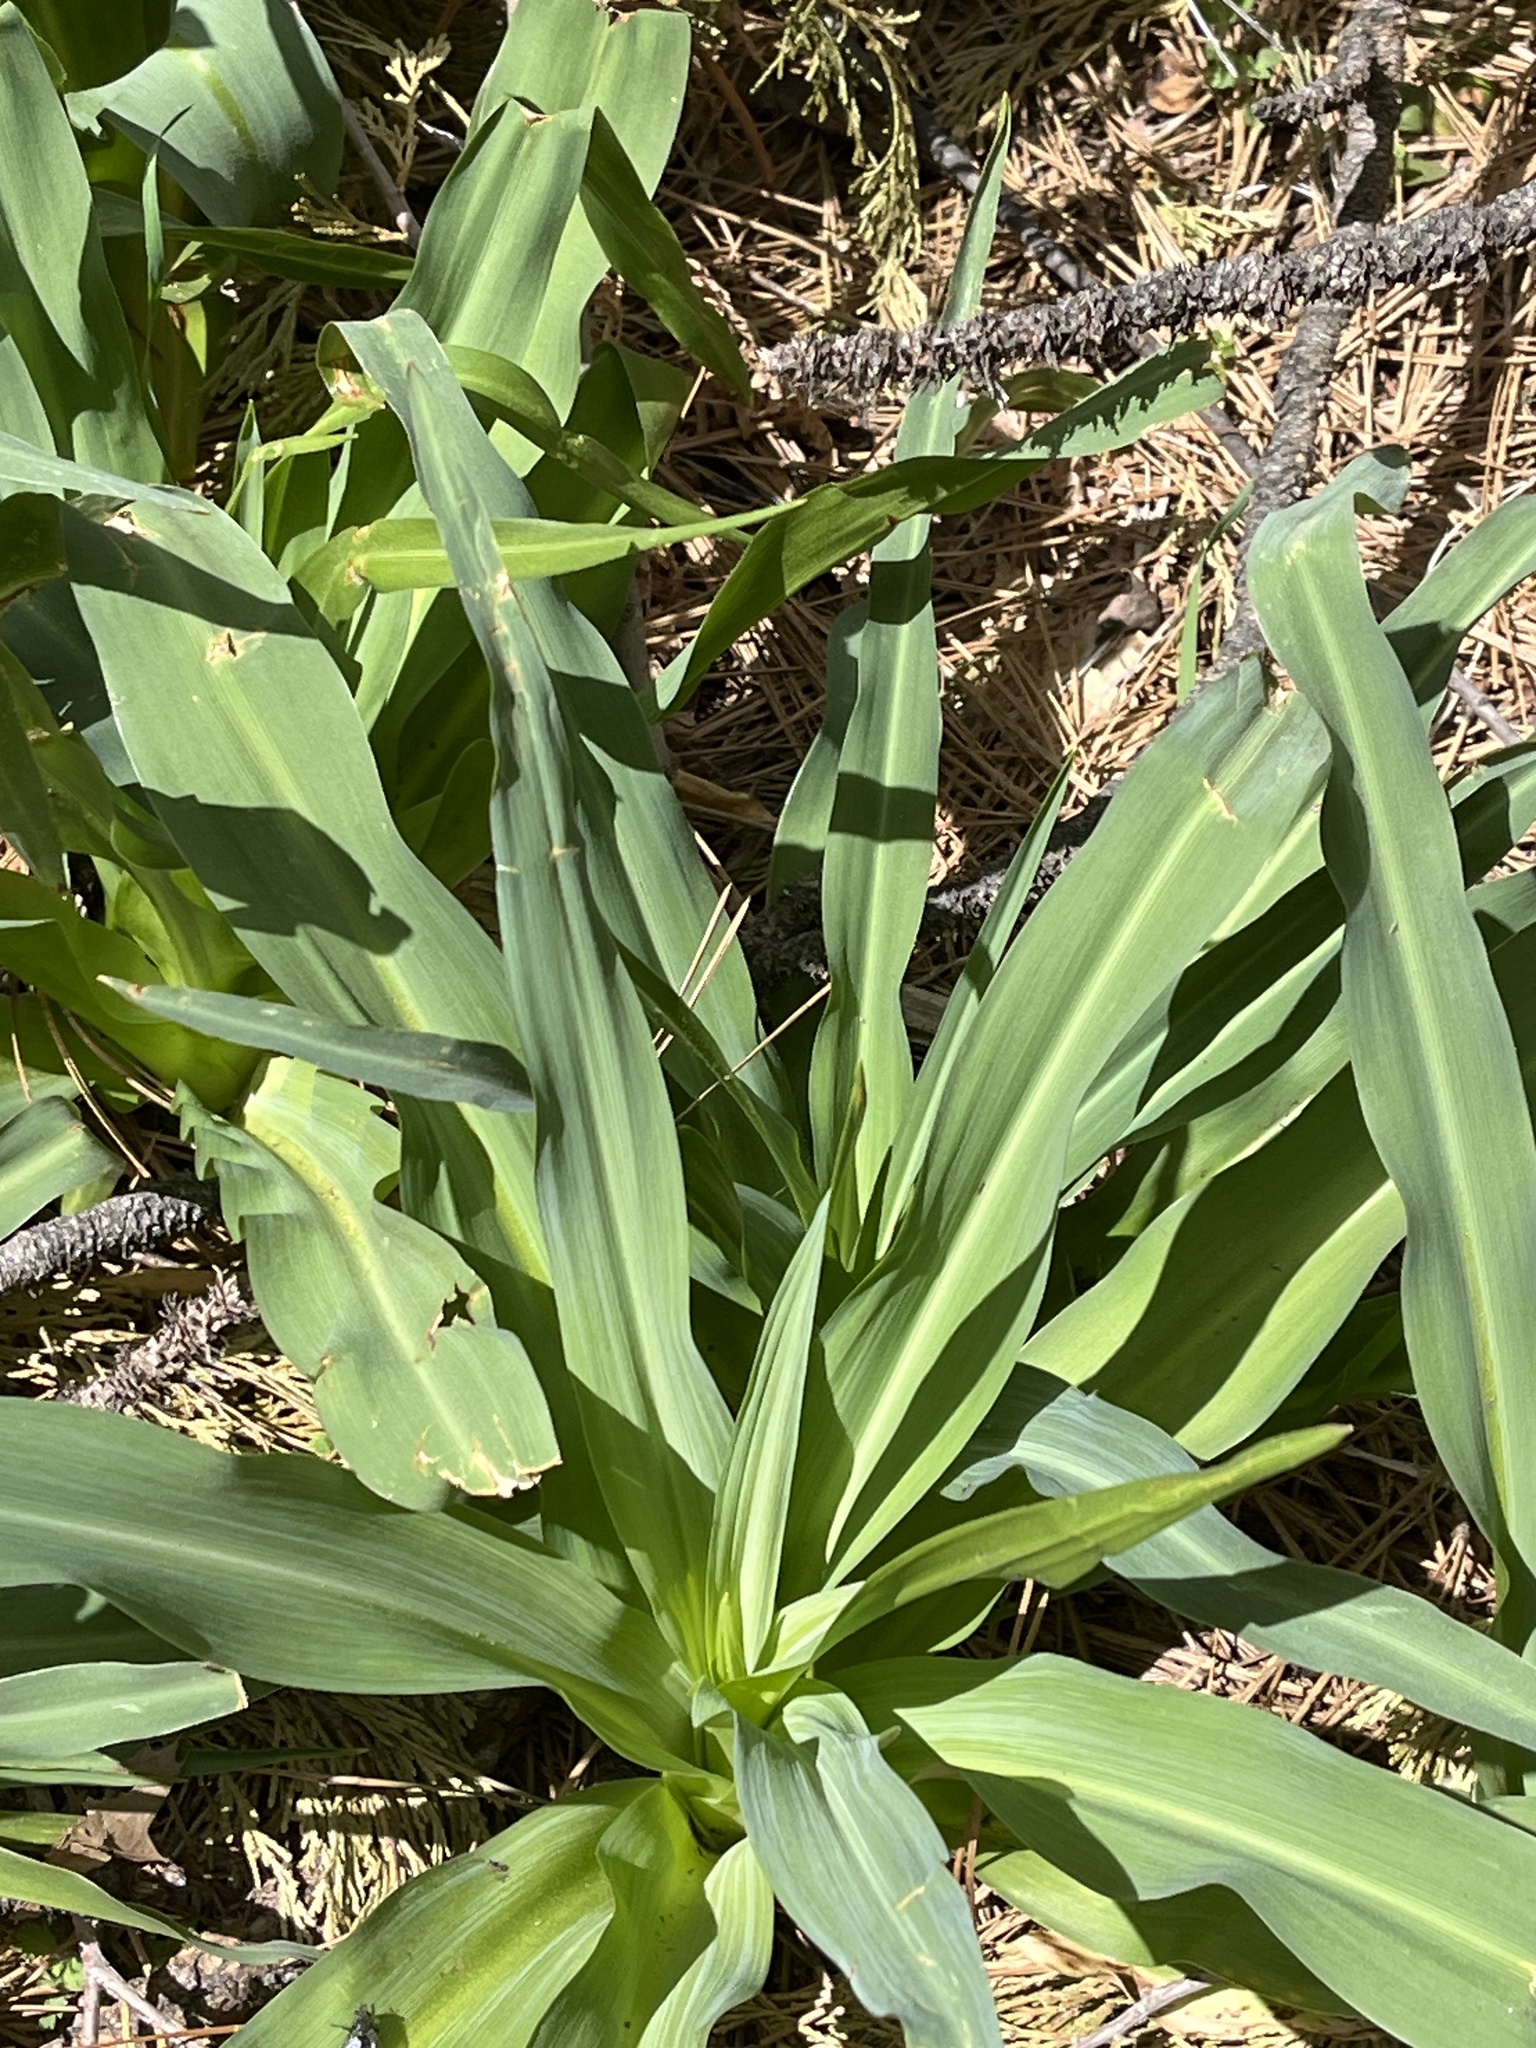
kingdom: Plantae
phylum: Tracheophyta
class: Liliopsida
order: Asparagales
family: Asparagaceae
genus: Chlorogalum
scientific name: Chlorogalum pomeridianum
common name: Amole
